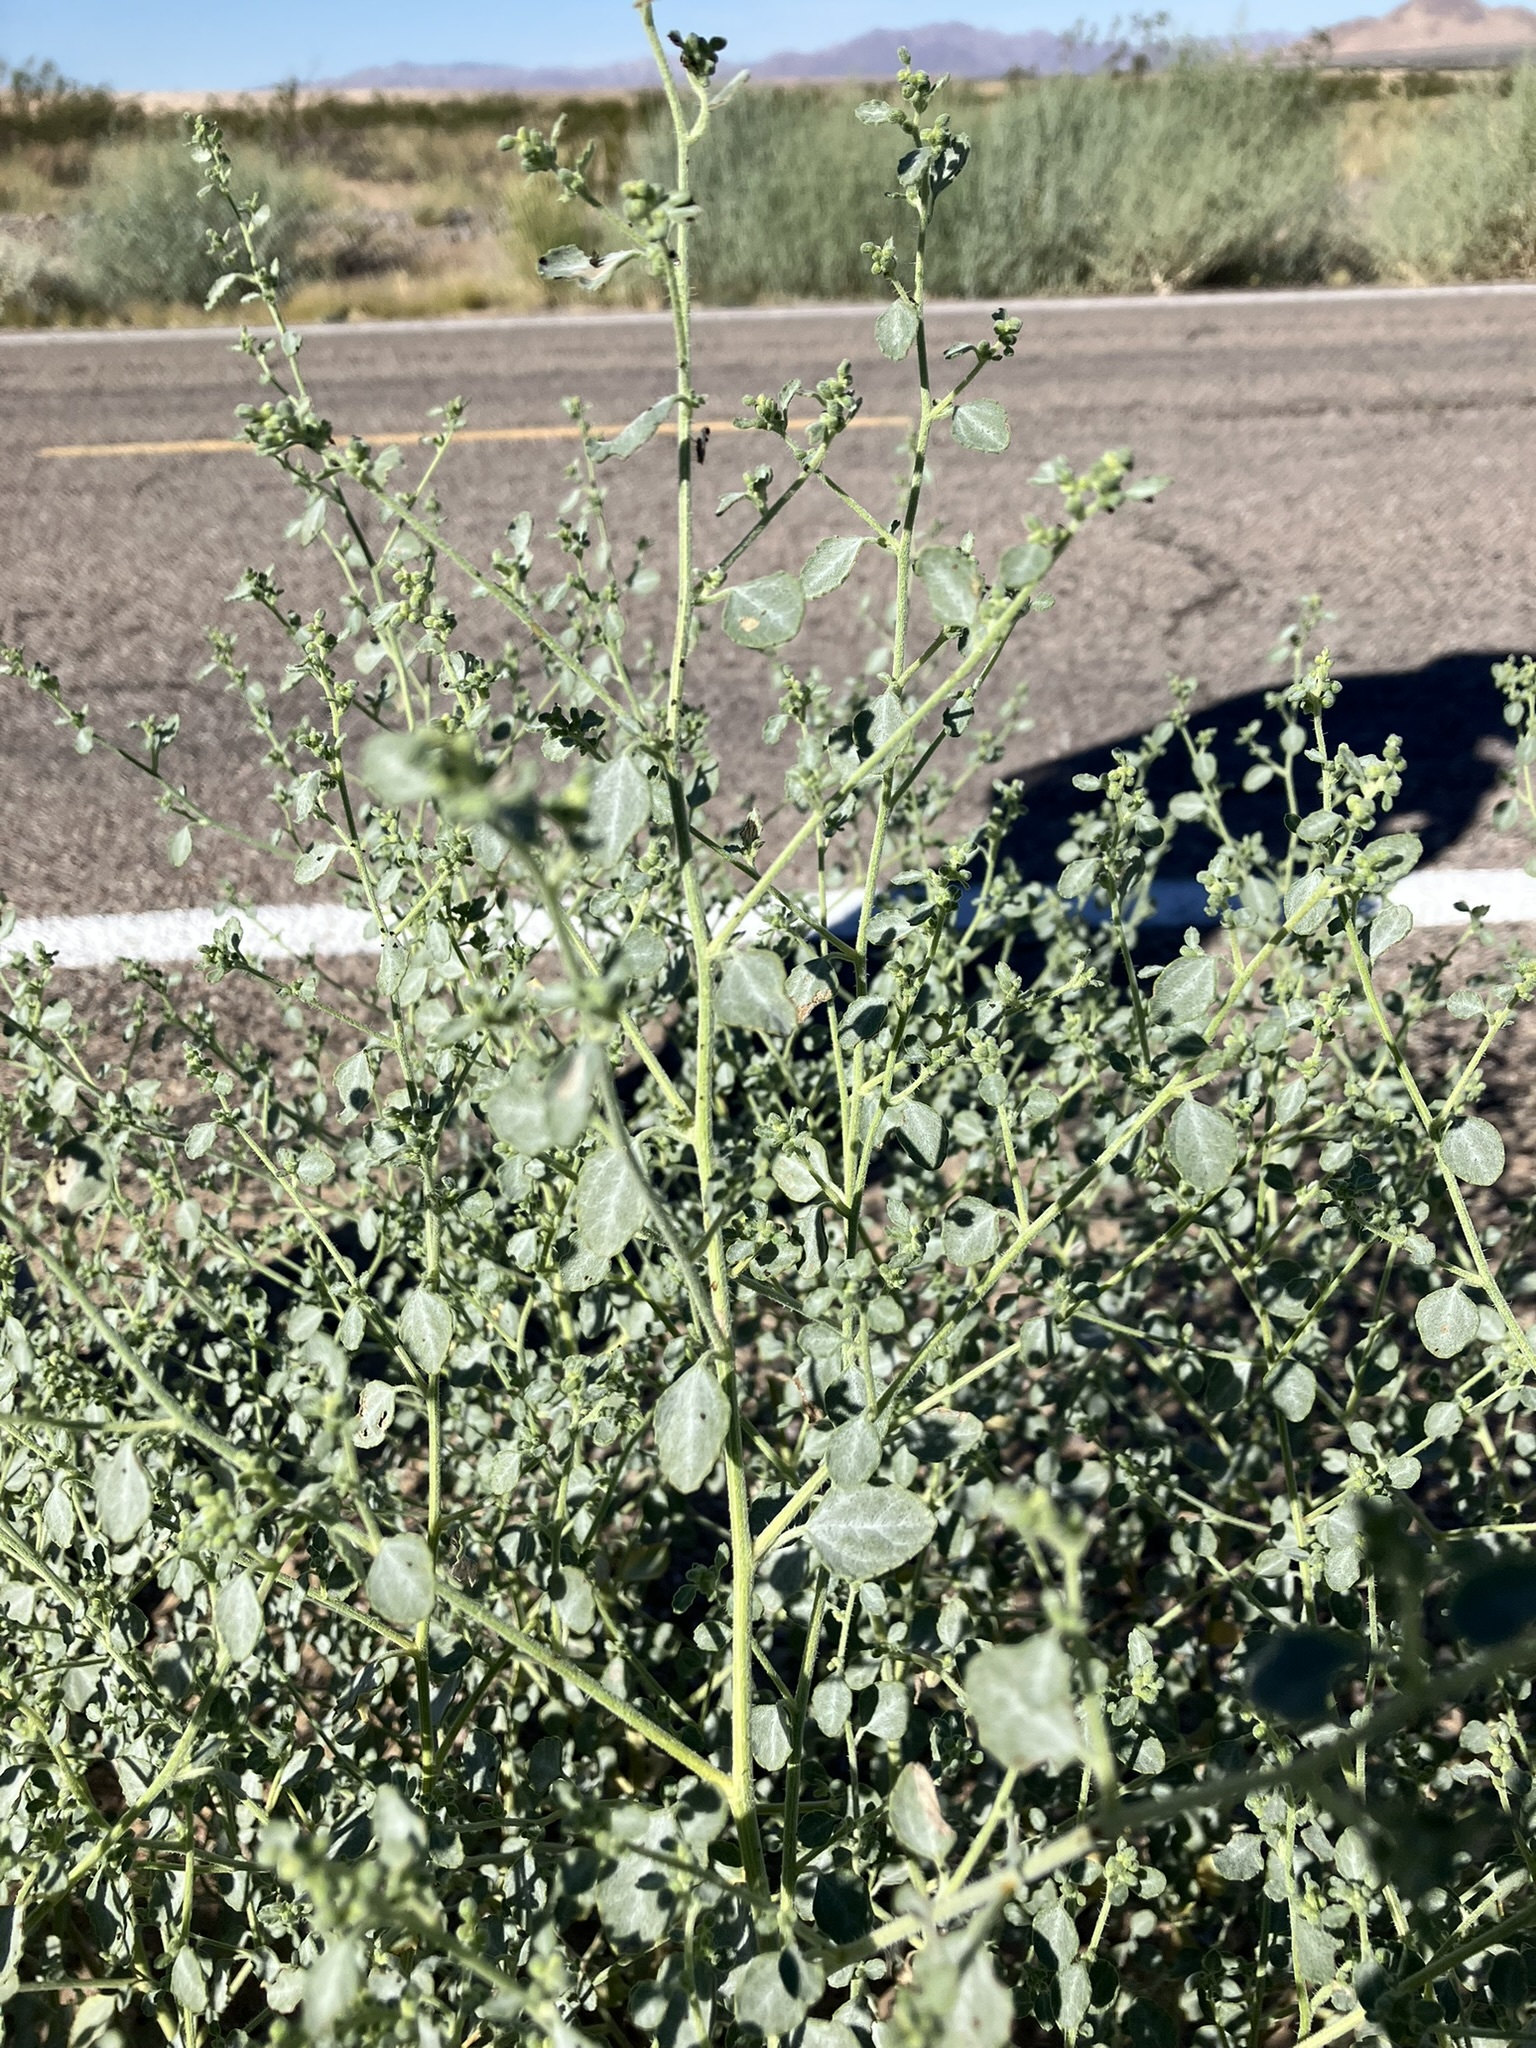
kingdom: Plantae
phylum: Tracheophyta
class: Magnoliopsida
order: Asterales
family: Asteraceae
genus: Dicoria
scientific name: Dicoria canescens
